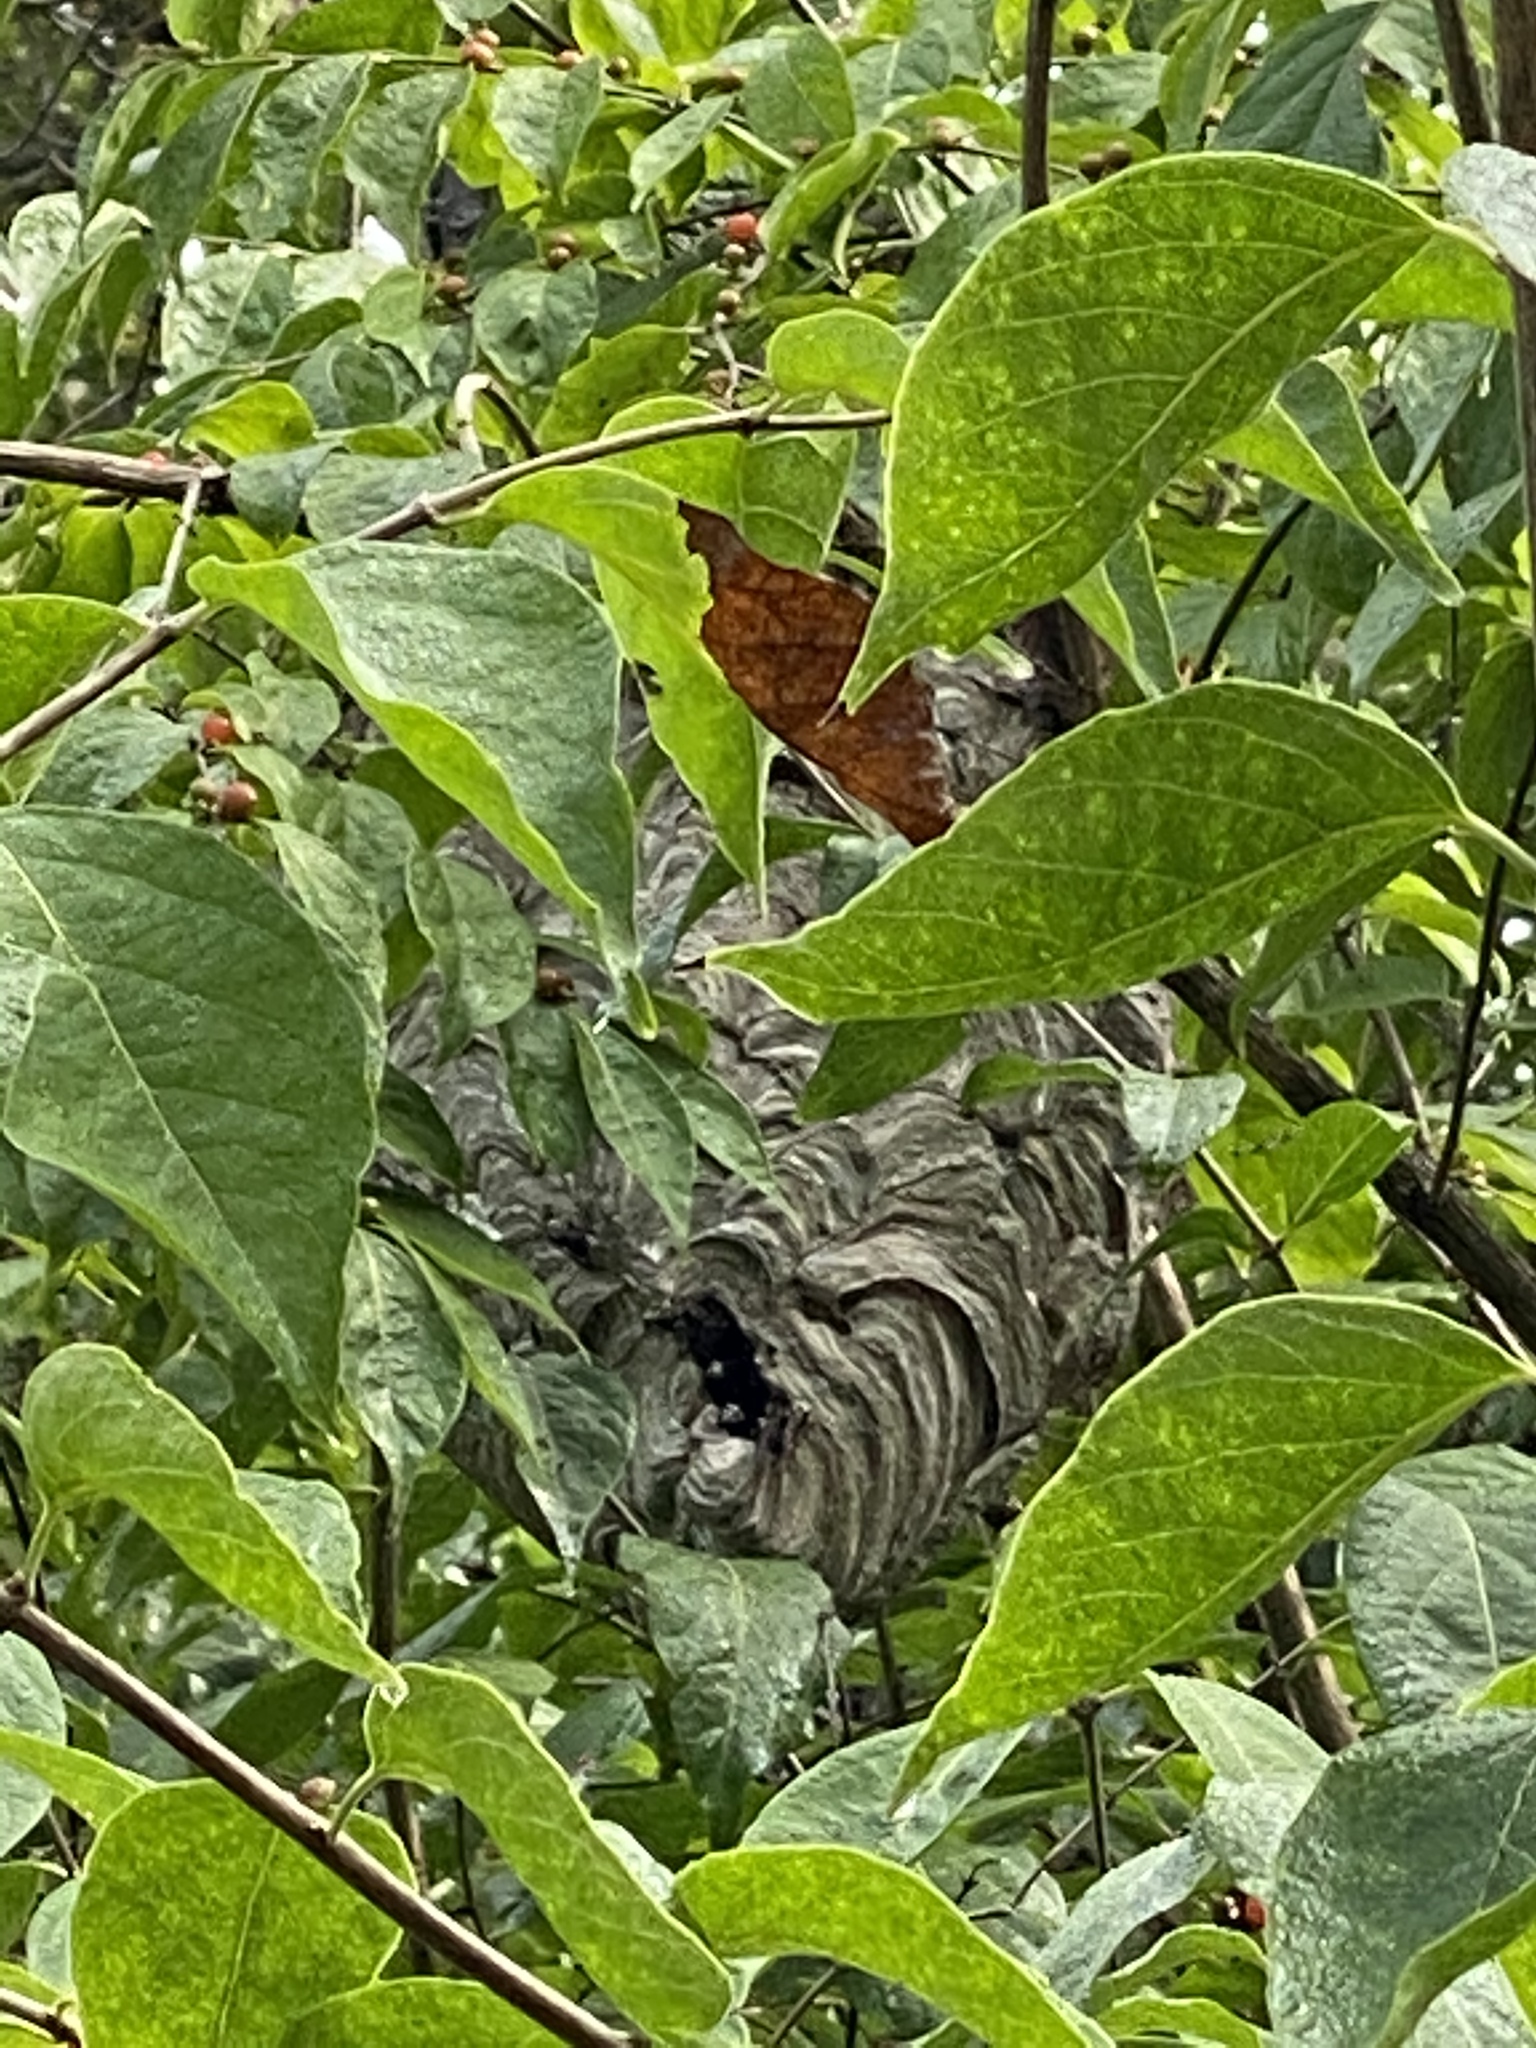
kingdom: Animalia
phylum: Arthropoda
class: Insecta
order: Hymenoptera
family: Vespidae
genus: Dolichovespula
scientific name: Dolichovespula maculata
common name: Bald-faced hornet
